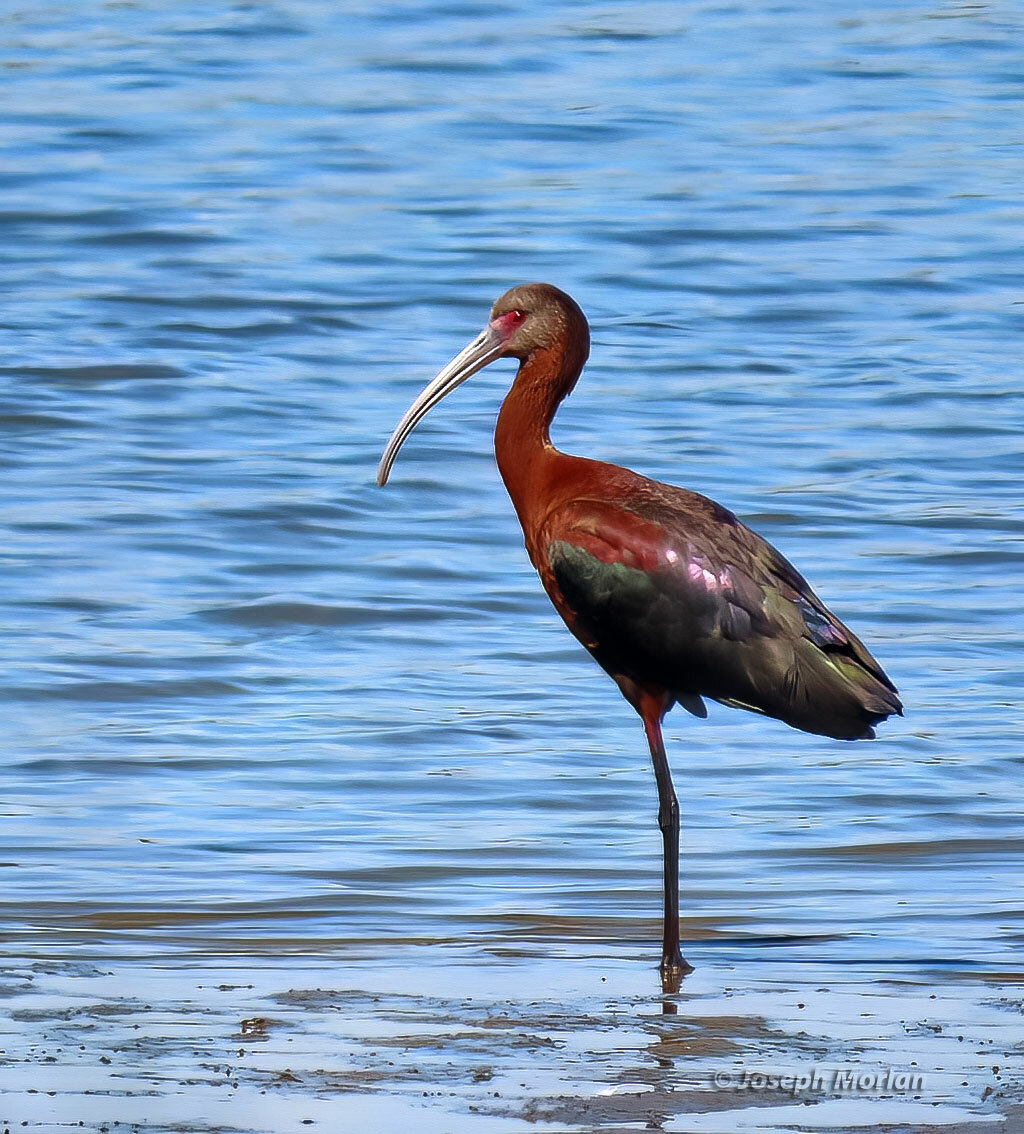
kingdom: Animalia
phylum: Chordata
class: Aves
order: Pelecaniformes
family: Threskiornithidae
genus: Plegadis
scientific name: Plegadis chihi
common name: White-faced ibis
